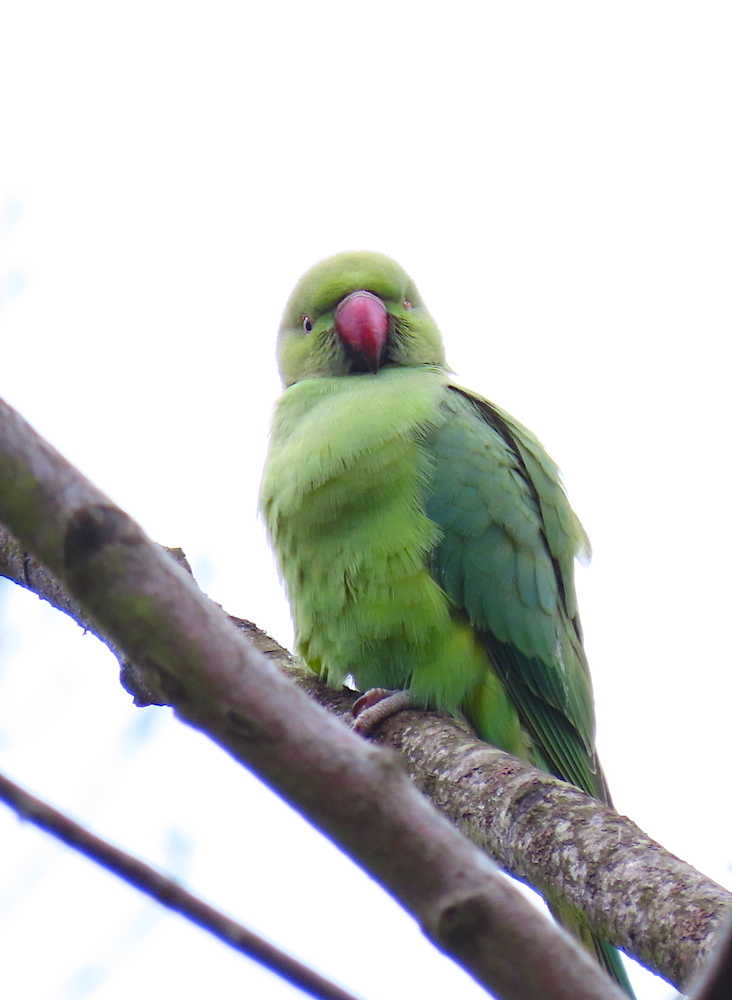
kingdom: Animalia
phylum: Chordata
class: Aves
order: Psittaciformes
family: Psittacidae
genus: Psittacula
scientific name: Psittacula krameri
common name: Rose-ringed parakeet
